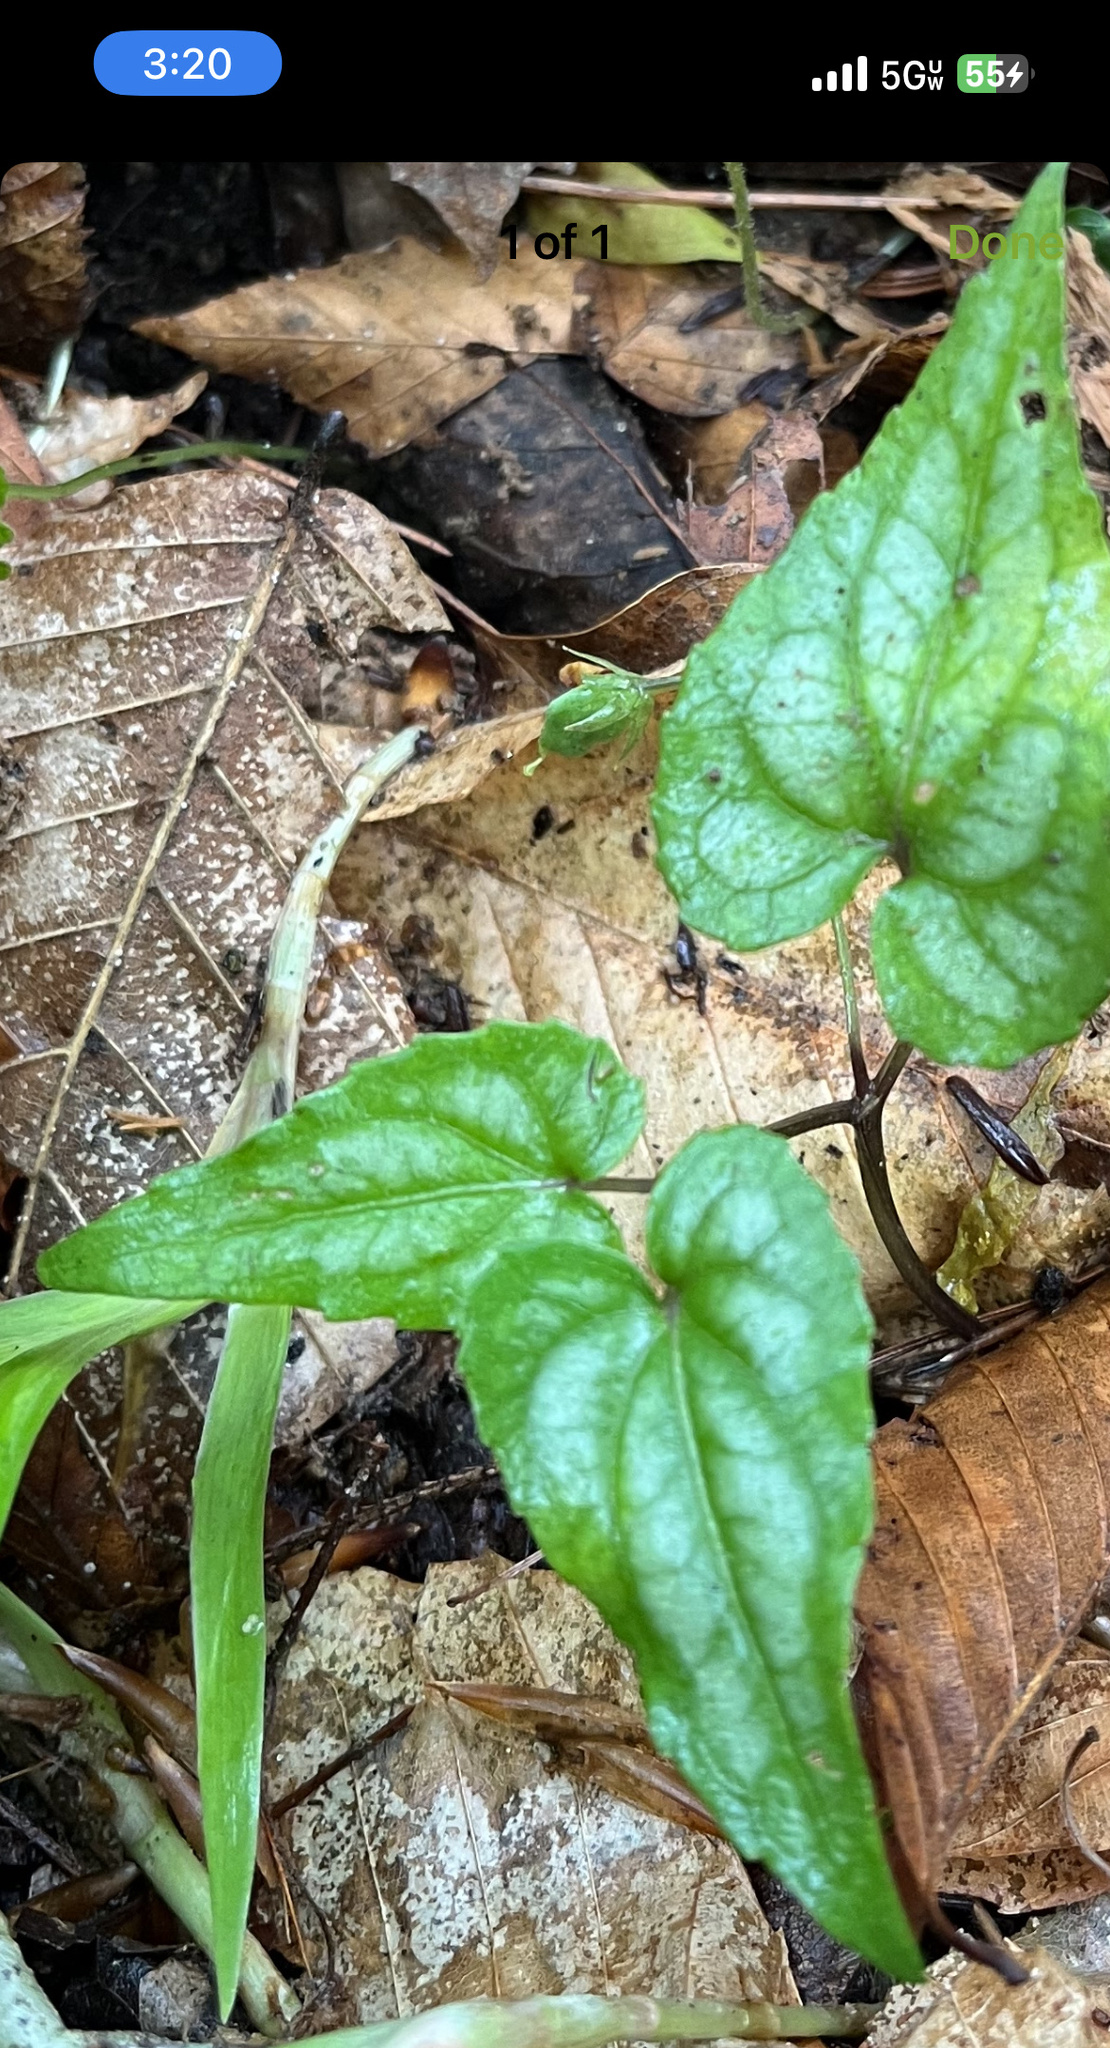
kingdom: Plantae
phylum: Tracheophyta
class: Magnoliopsida
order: Malpighiales
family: Violaceae
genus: Viola
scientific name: Viola hastata
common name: Spear-leaf violet
